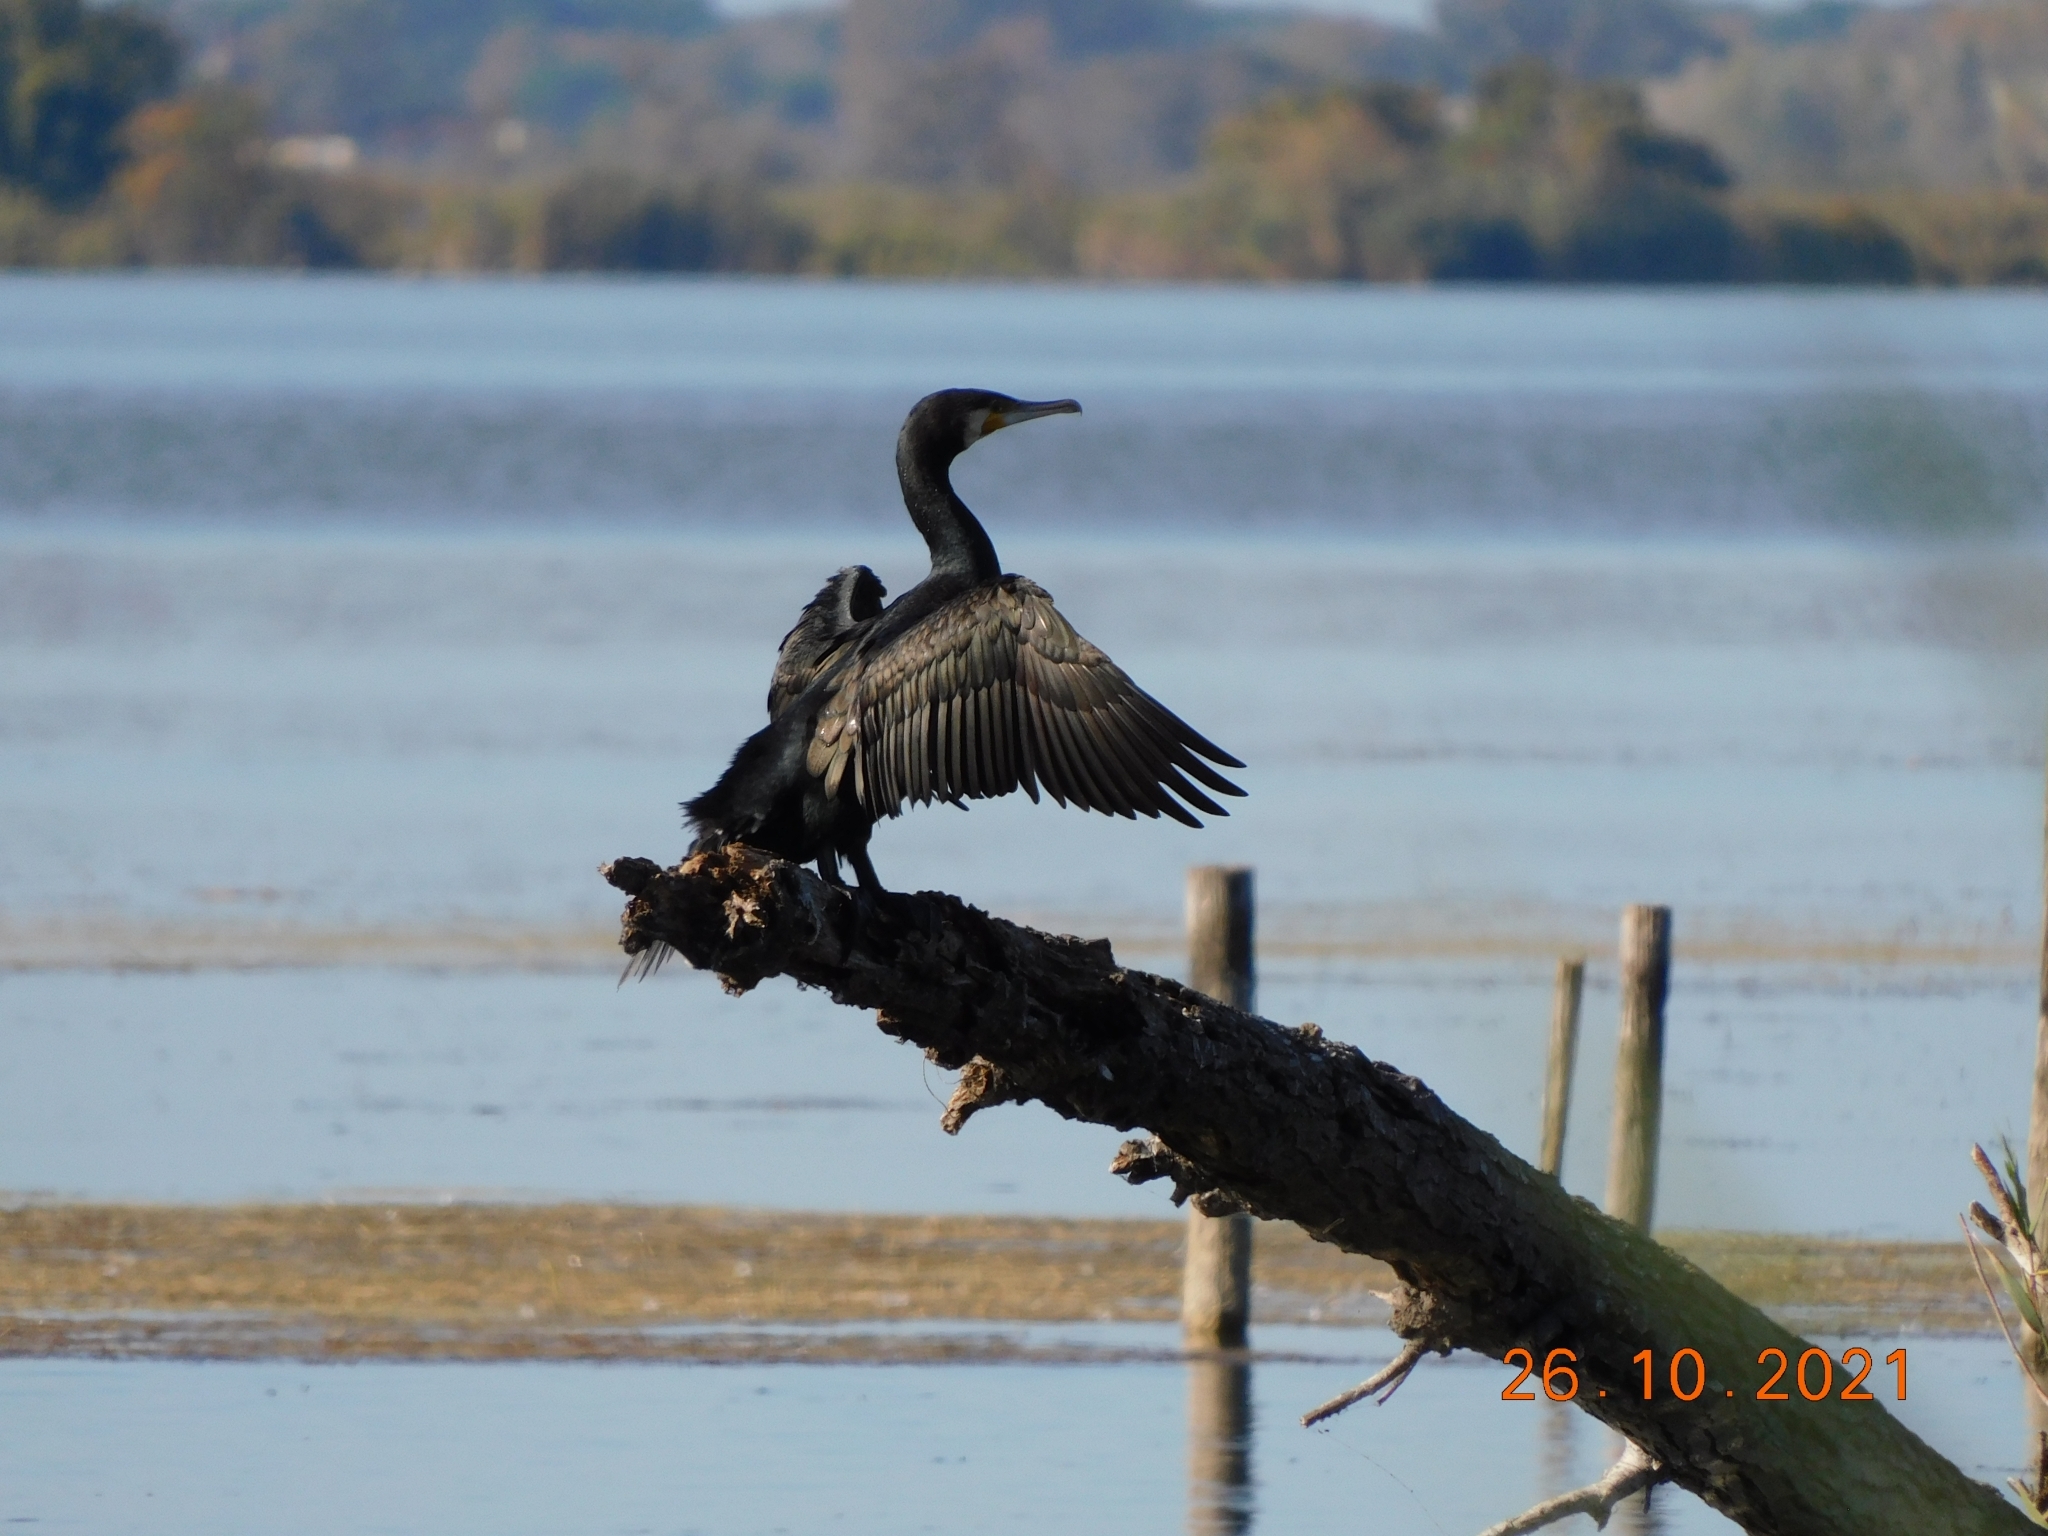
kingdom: Animalia
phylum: Chordata
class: Aves
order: Suliformes
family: Phalacrocoracidae
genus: Phalacrocorax
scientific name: Phalacrocorax carbo
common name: Great cormorant
